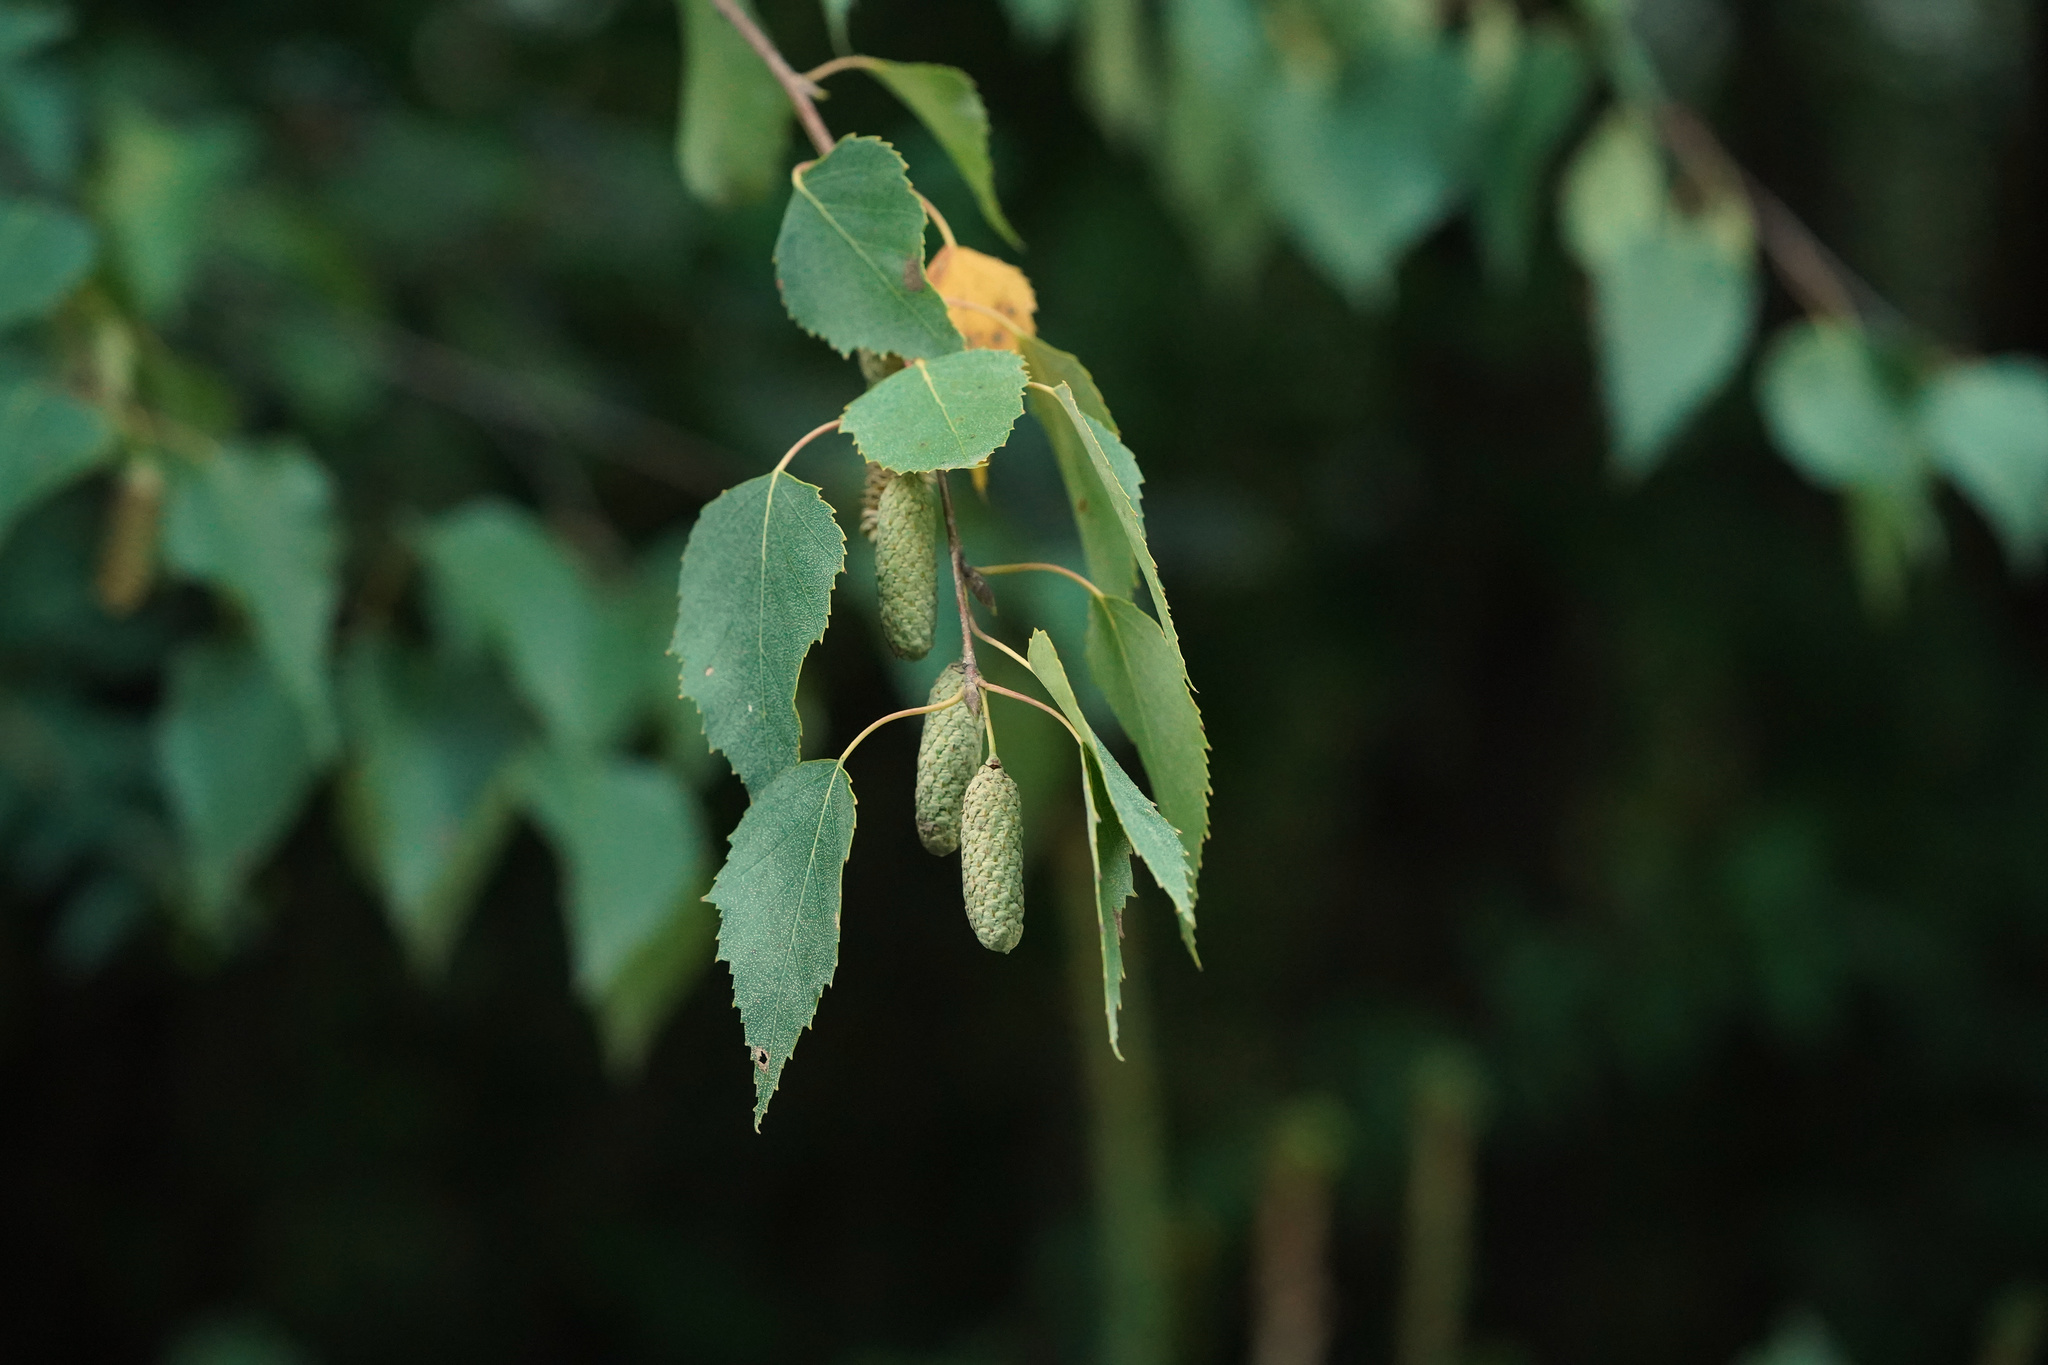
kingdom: Plantae
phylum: Tracheophyta
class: Magnoliopsida
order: Fagales
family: Betulaceae
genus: Betula
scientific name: Betula pendula
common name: Silver birch
